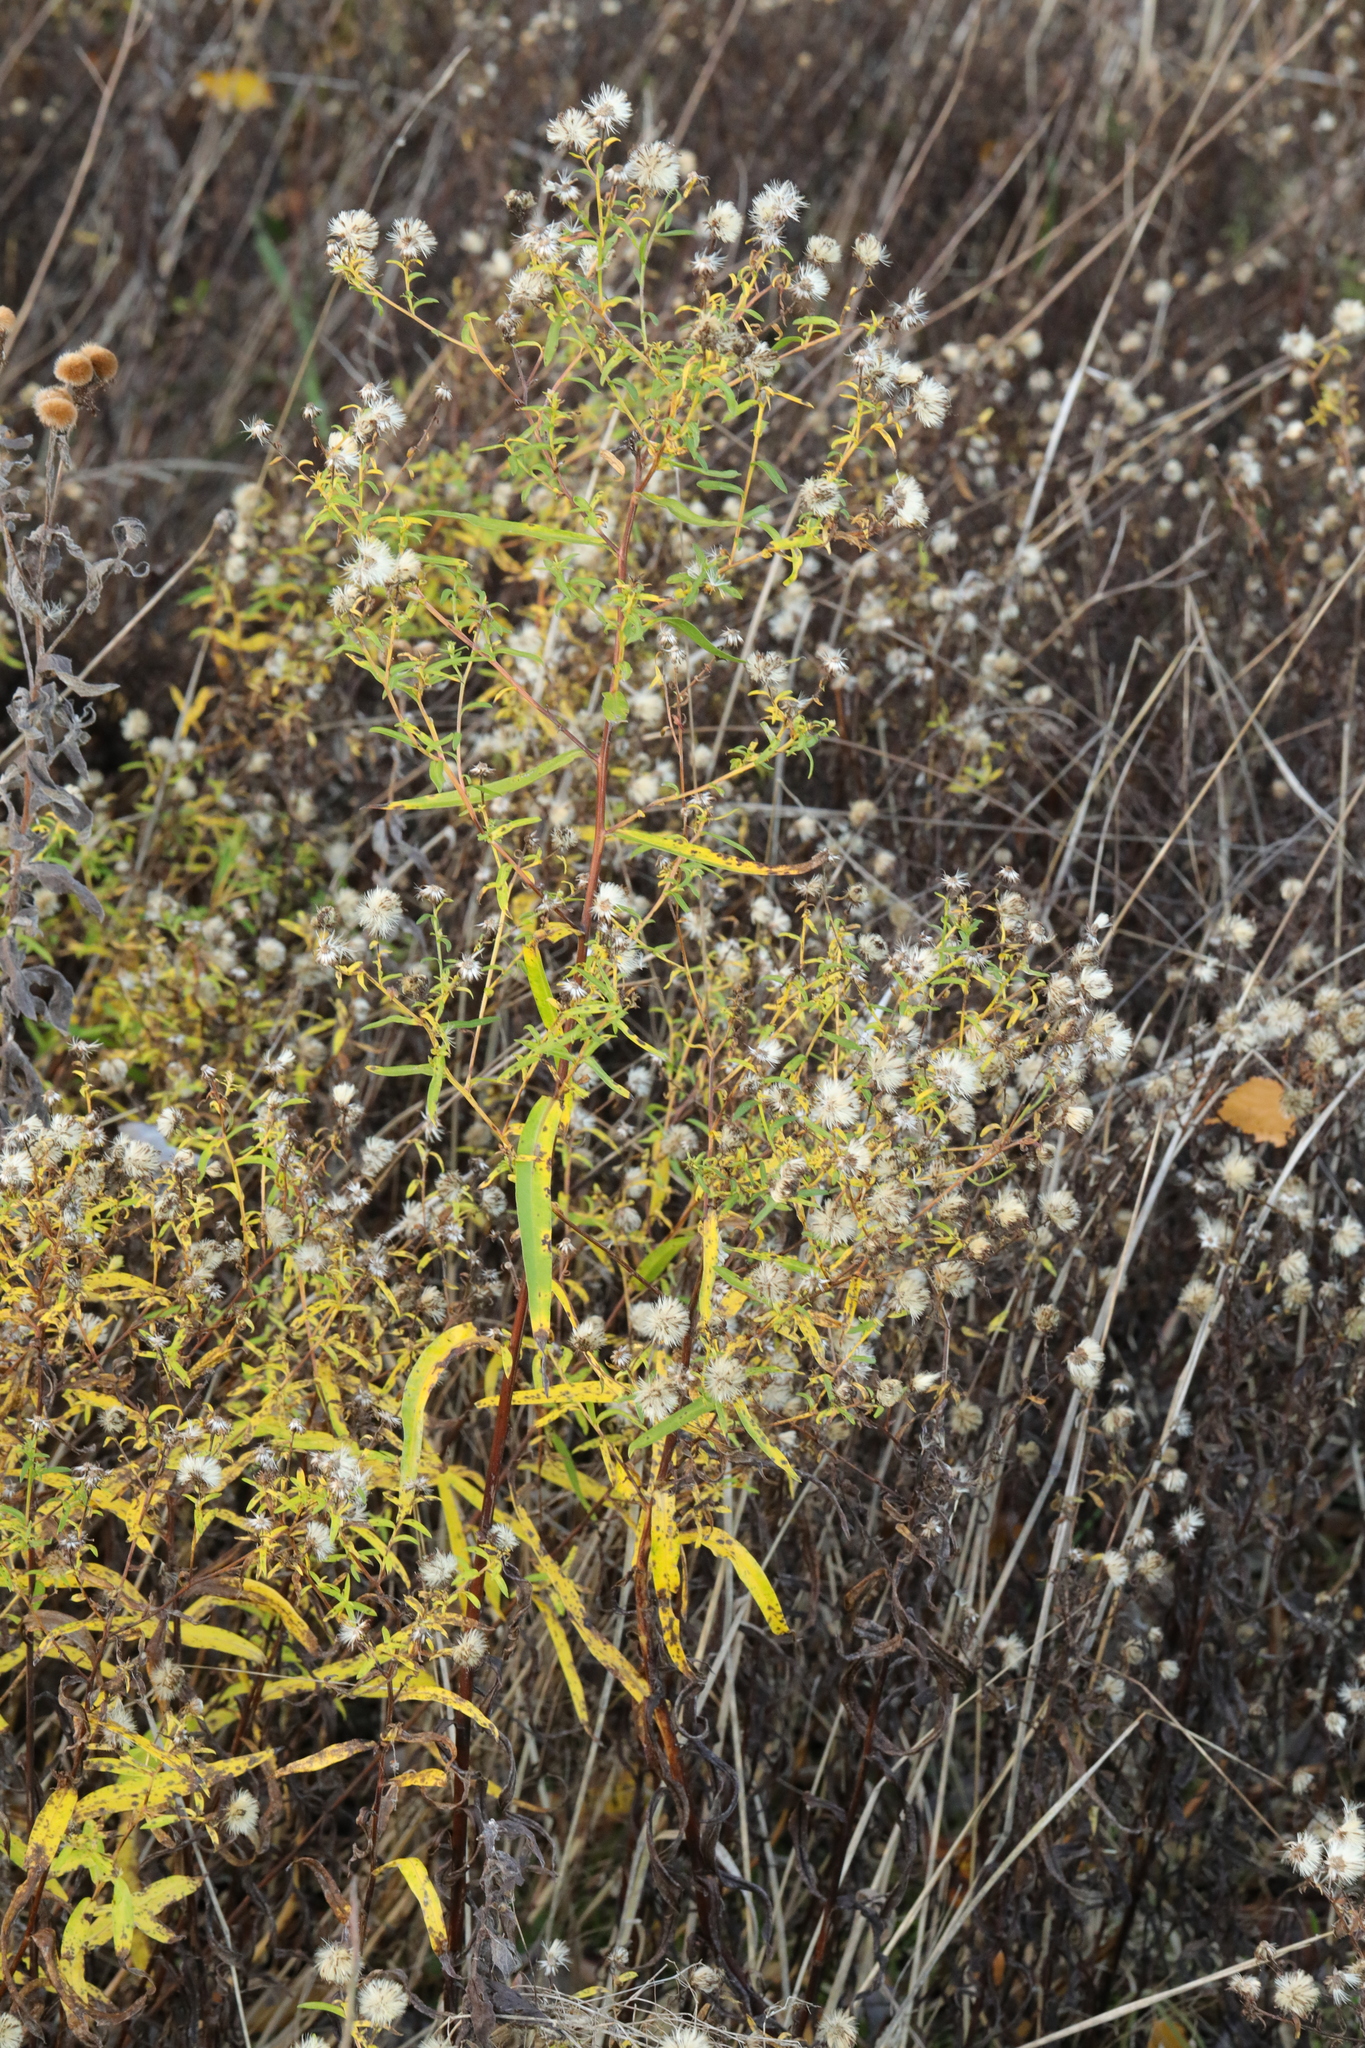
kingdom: Plantae
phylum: Tracheophyta
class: Magnoliopsida
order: Asterales
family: Asteraceae
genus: Symphyotrichum
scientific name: Symphyotrichum
